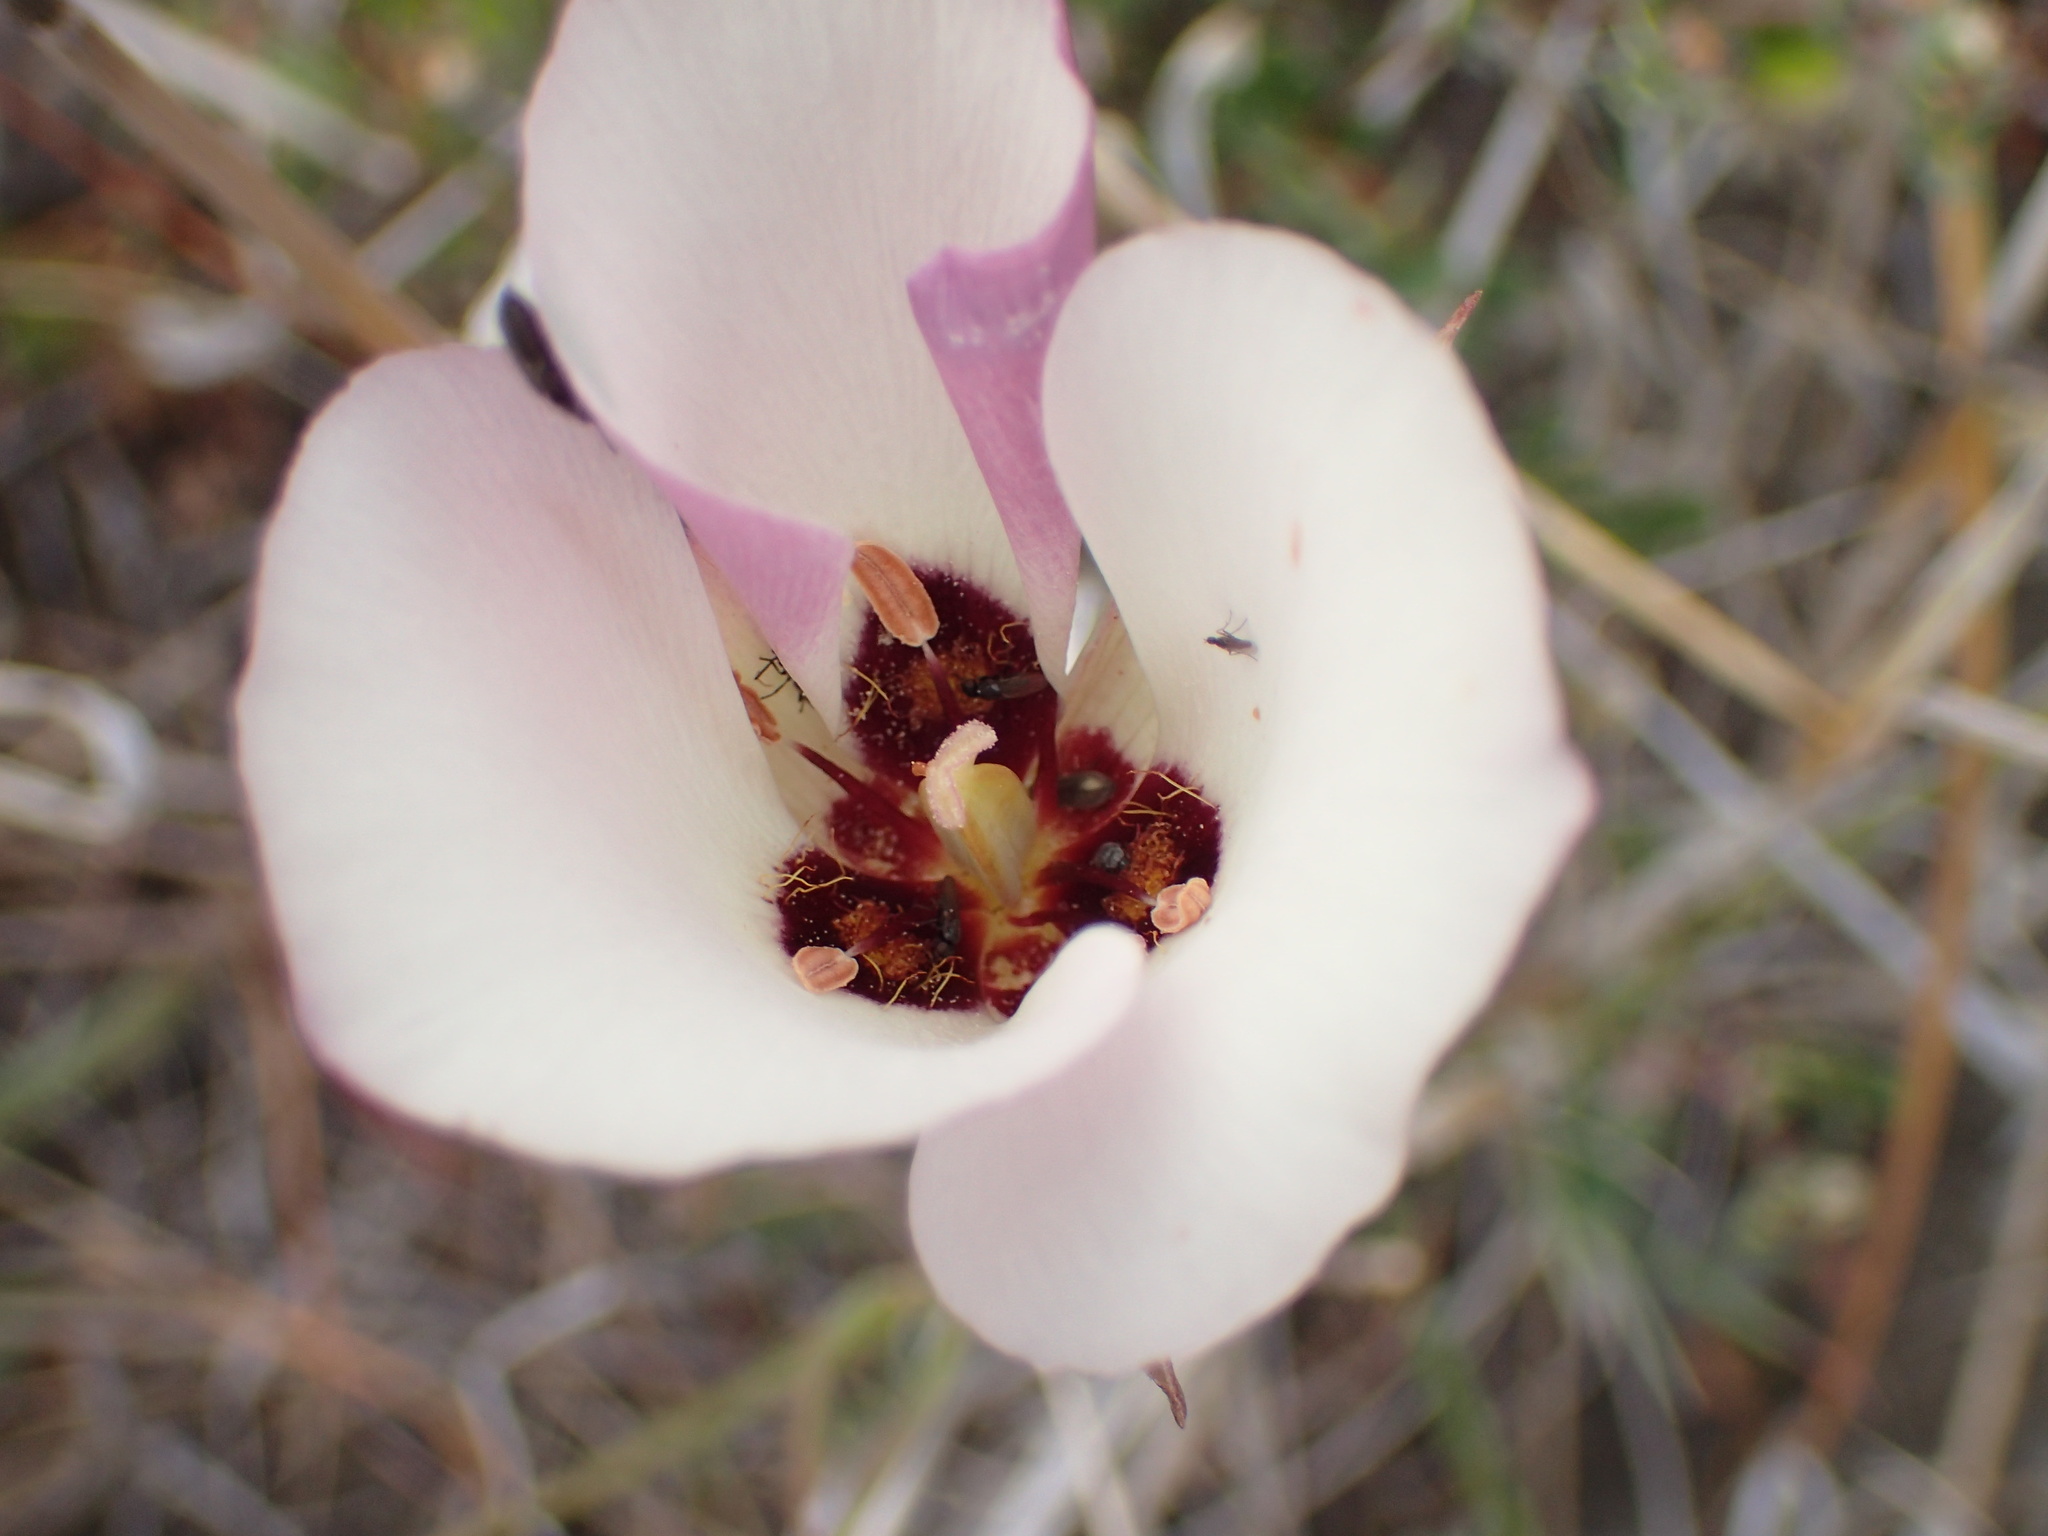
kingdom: Plantae
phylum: Tracheophyta
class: Liliopsida
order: Liliales
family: Liliaceae
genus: Calochortus
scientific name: Calochortus catalinae
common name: Catalina mariposa-lily
